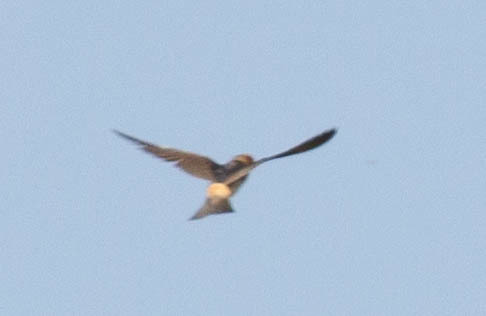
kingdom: Animalia
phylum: Chordata
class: Aves
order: Passeriformes
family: Hirundinidae
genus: Petrochelidon
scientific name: Petrochelidon pyrrhonota
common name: American cliff swallow
